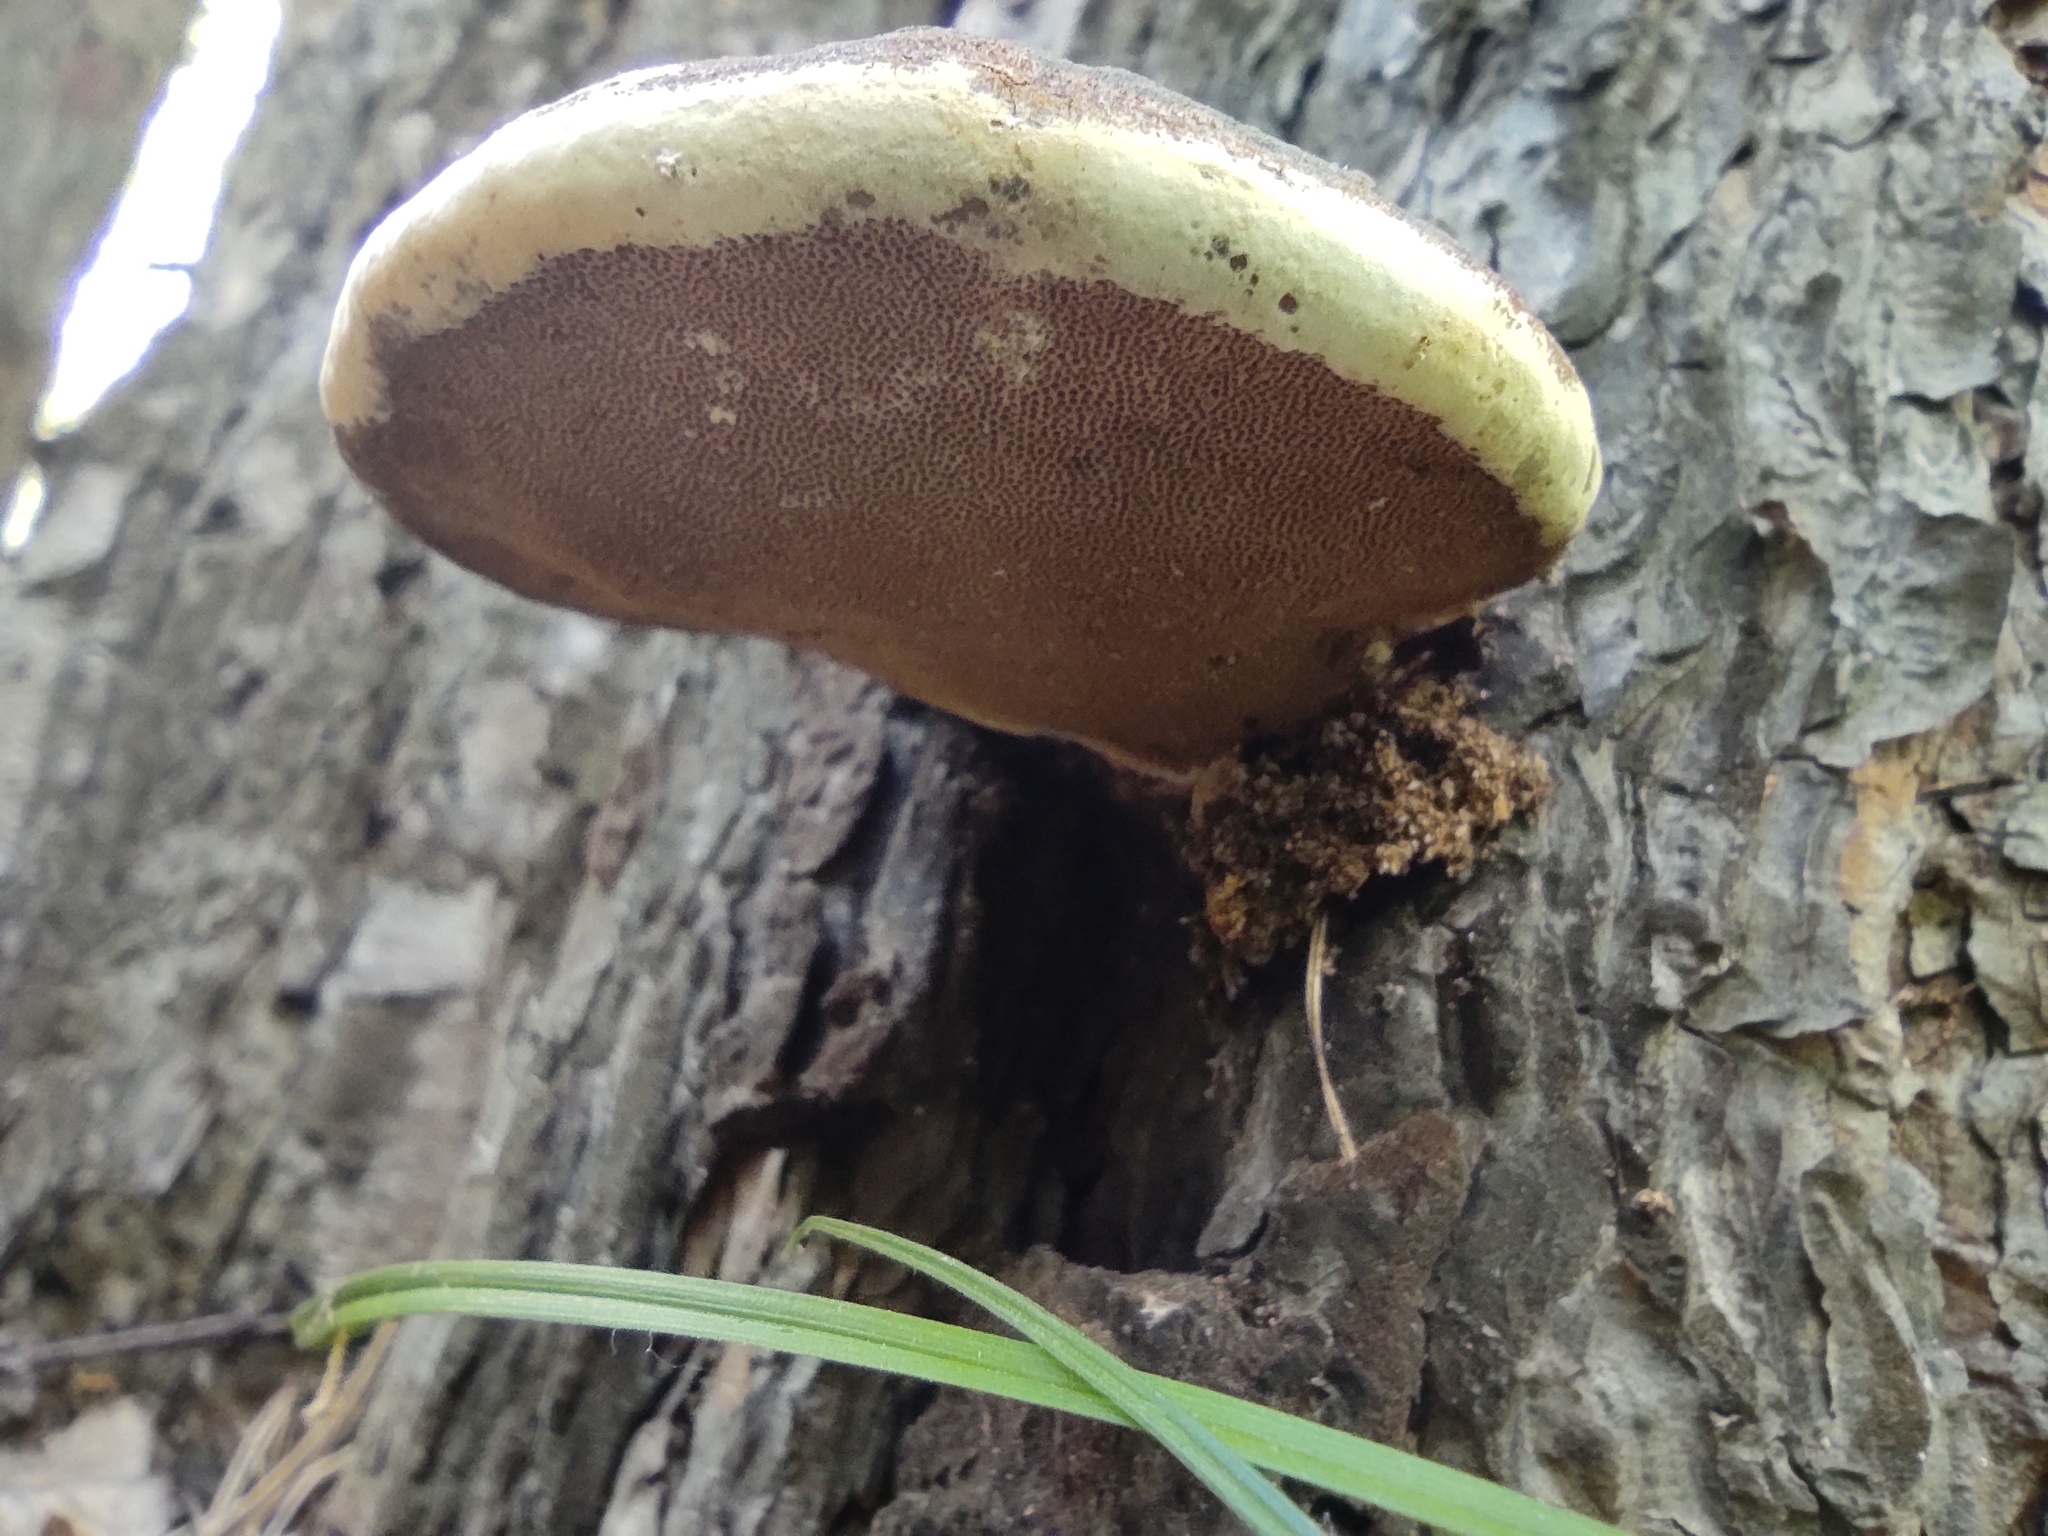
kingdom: Fungi
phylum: Basidiomycota
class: Agaricomycetes
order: Polyporales
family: Fomitopsidaceae
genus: Fomitopsis
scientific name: Fomitopsis pinicola
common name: Red-belted bracket
